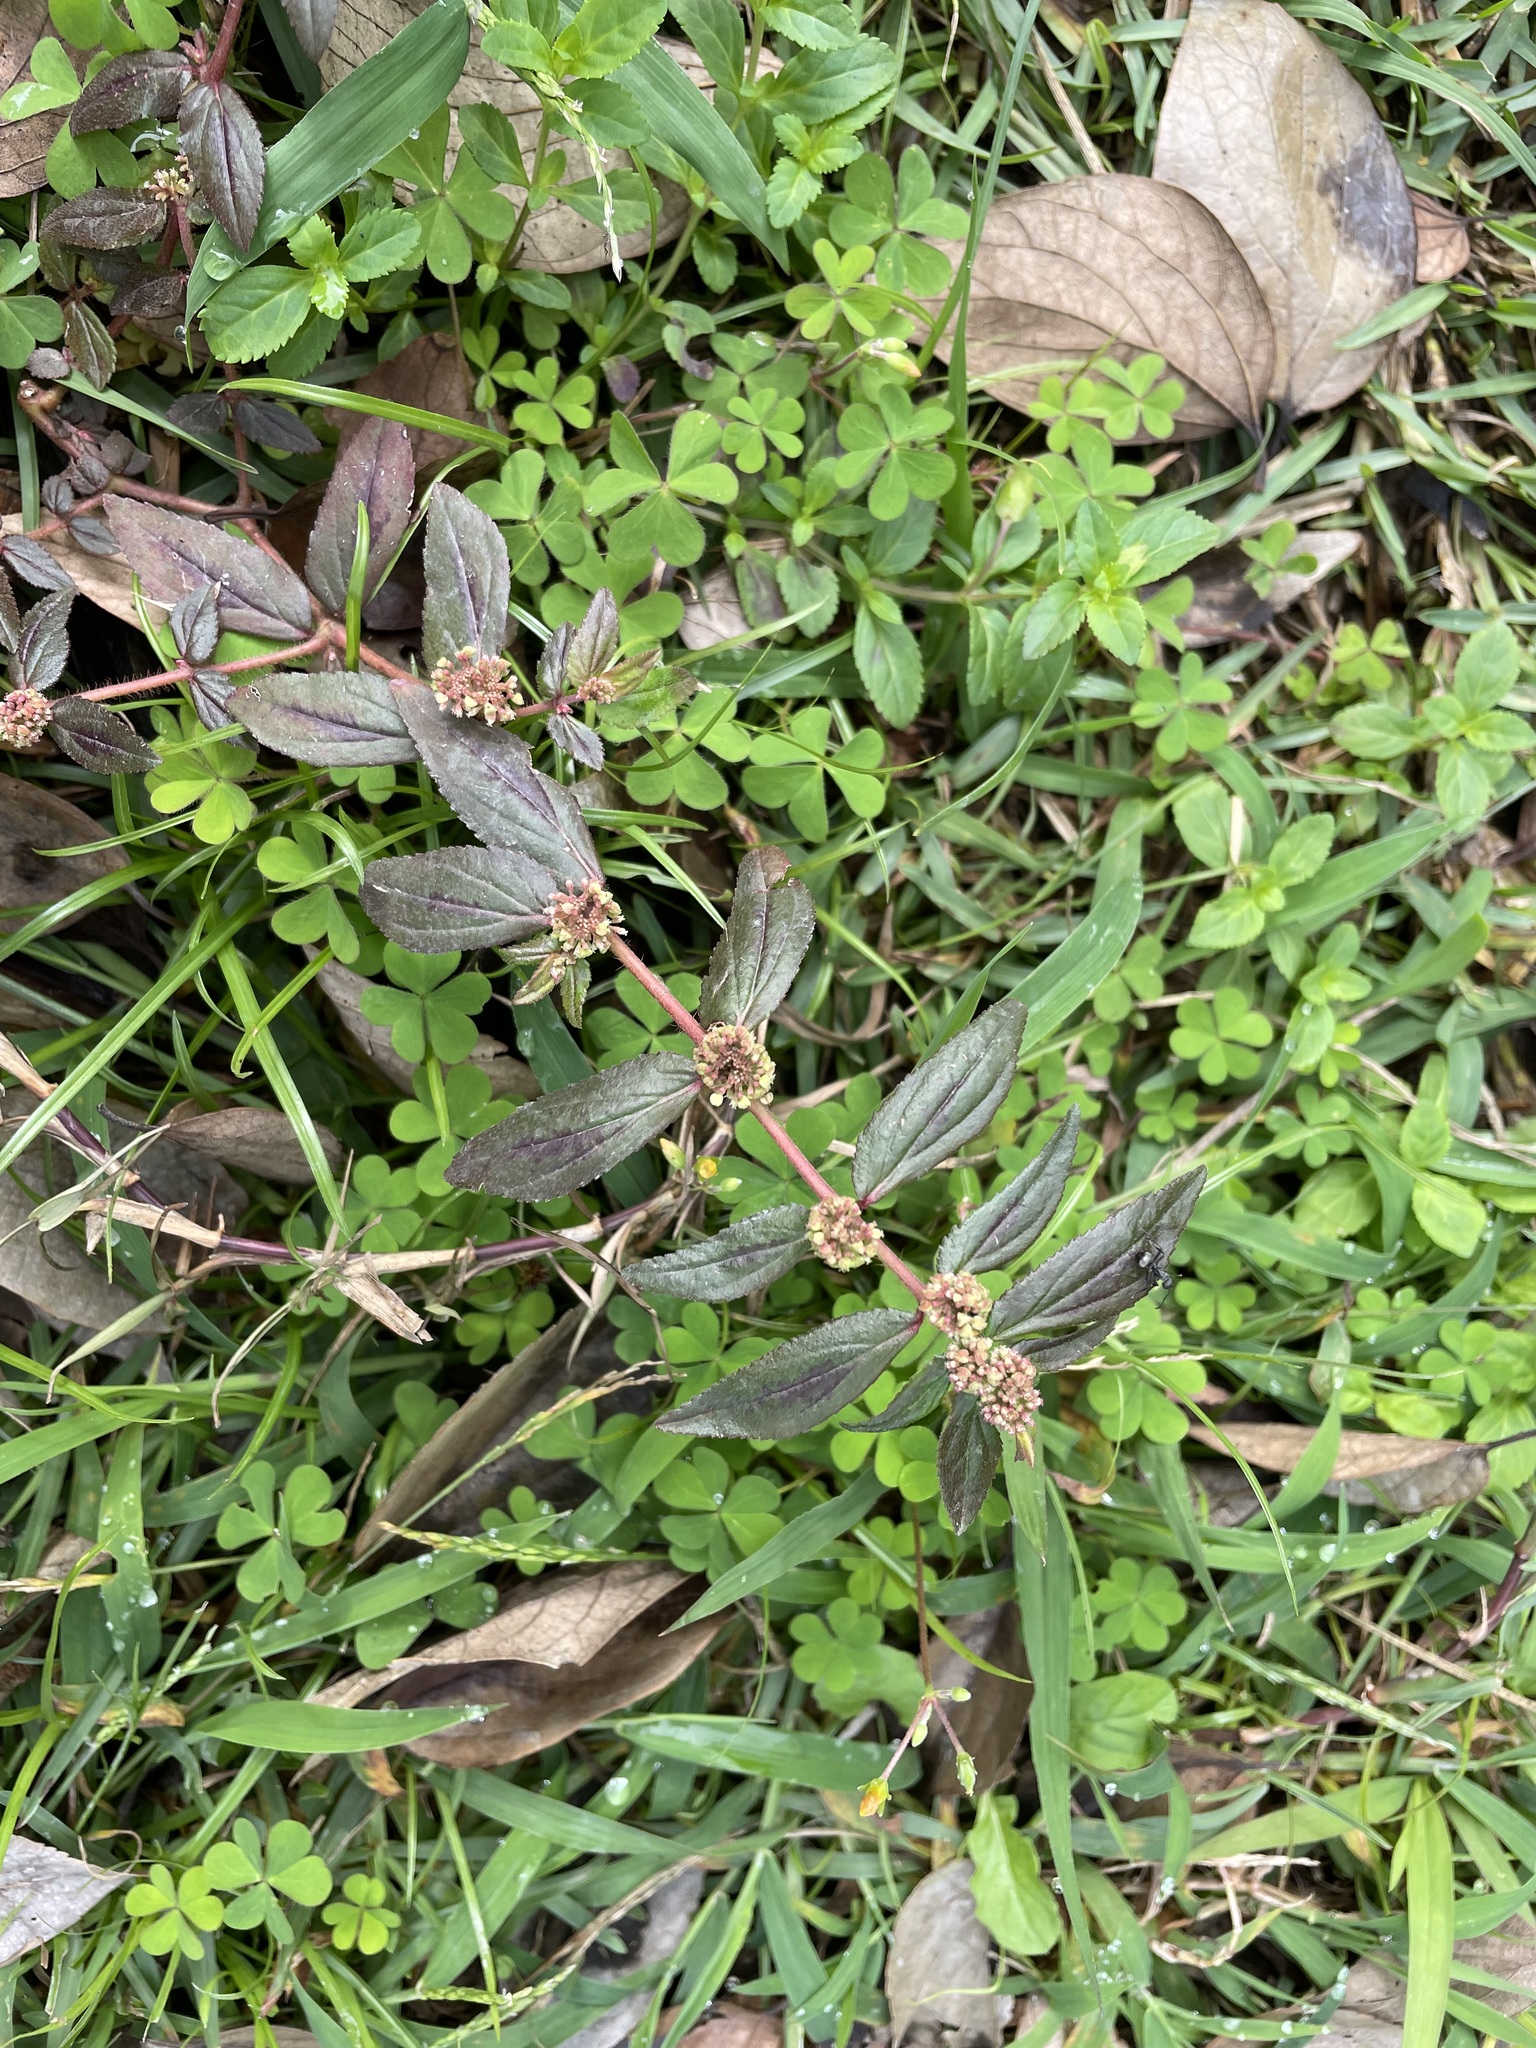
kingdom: Plantae
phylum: Tracheophyta
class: Magnoliopsida
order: Malpighiales
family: Euphorbiaceae
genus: Euphorbia
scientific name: Euphorbia hirta
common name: Pillpod sandmat
